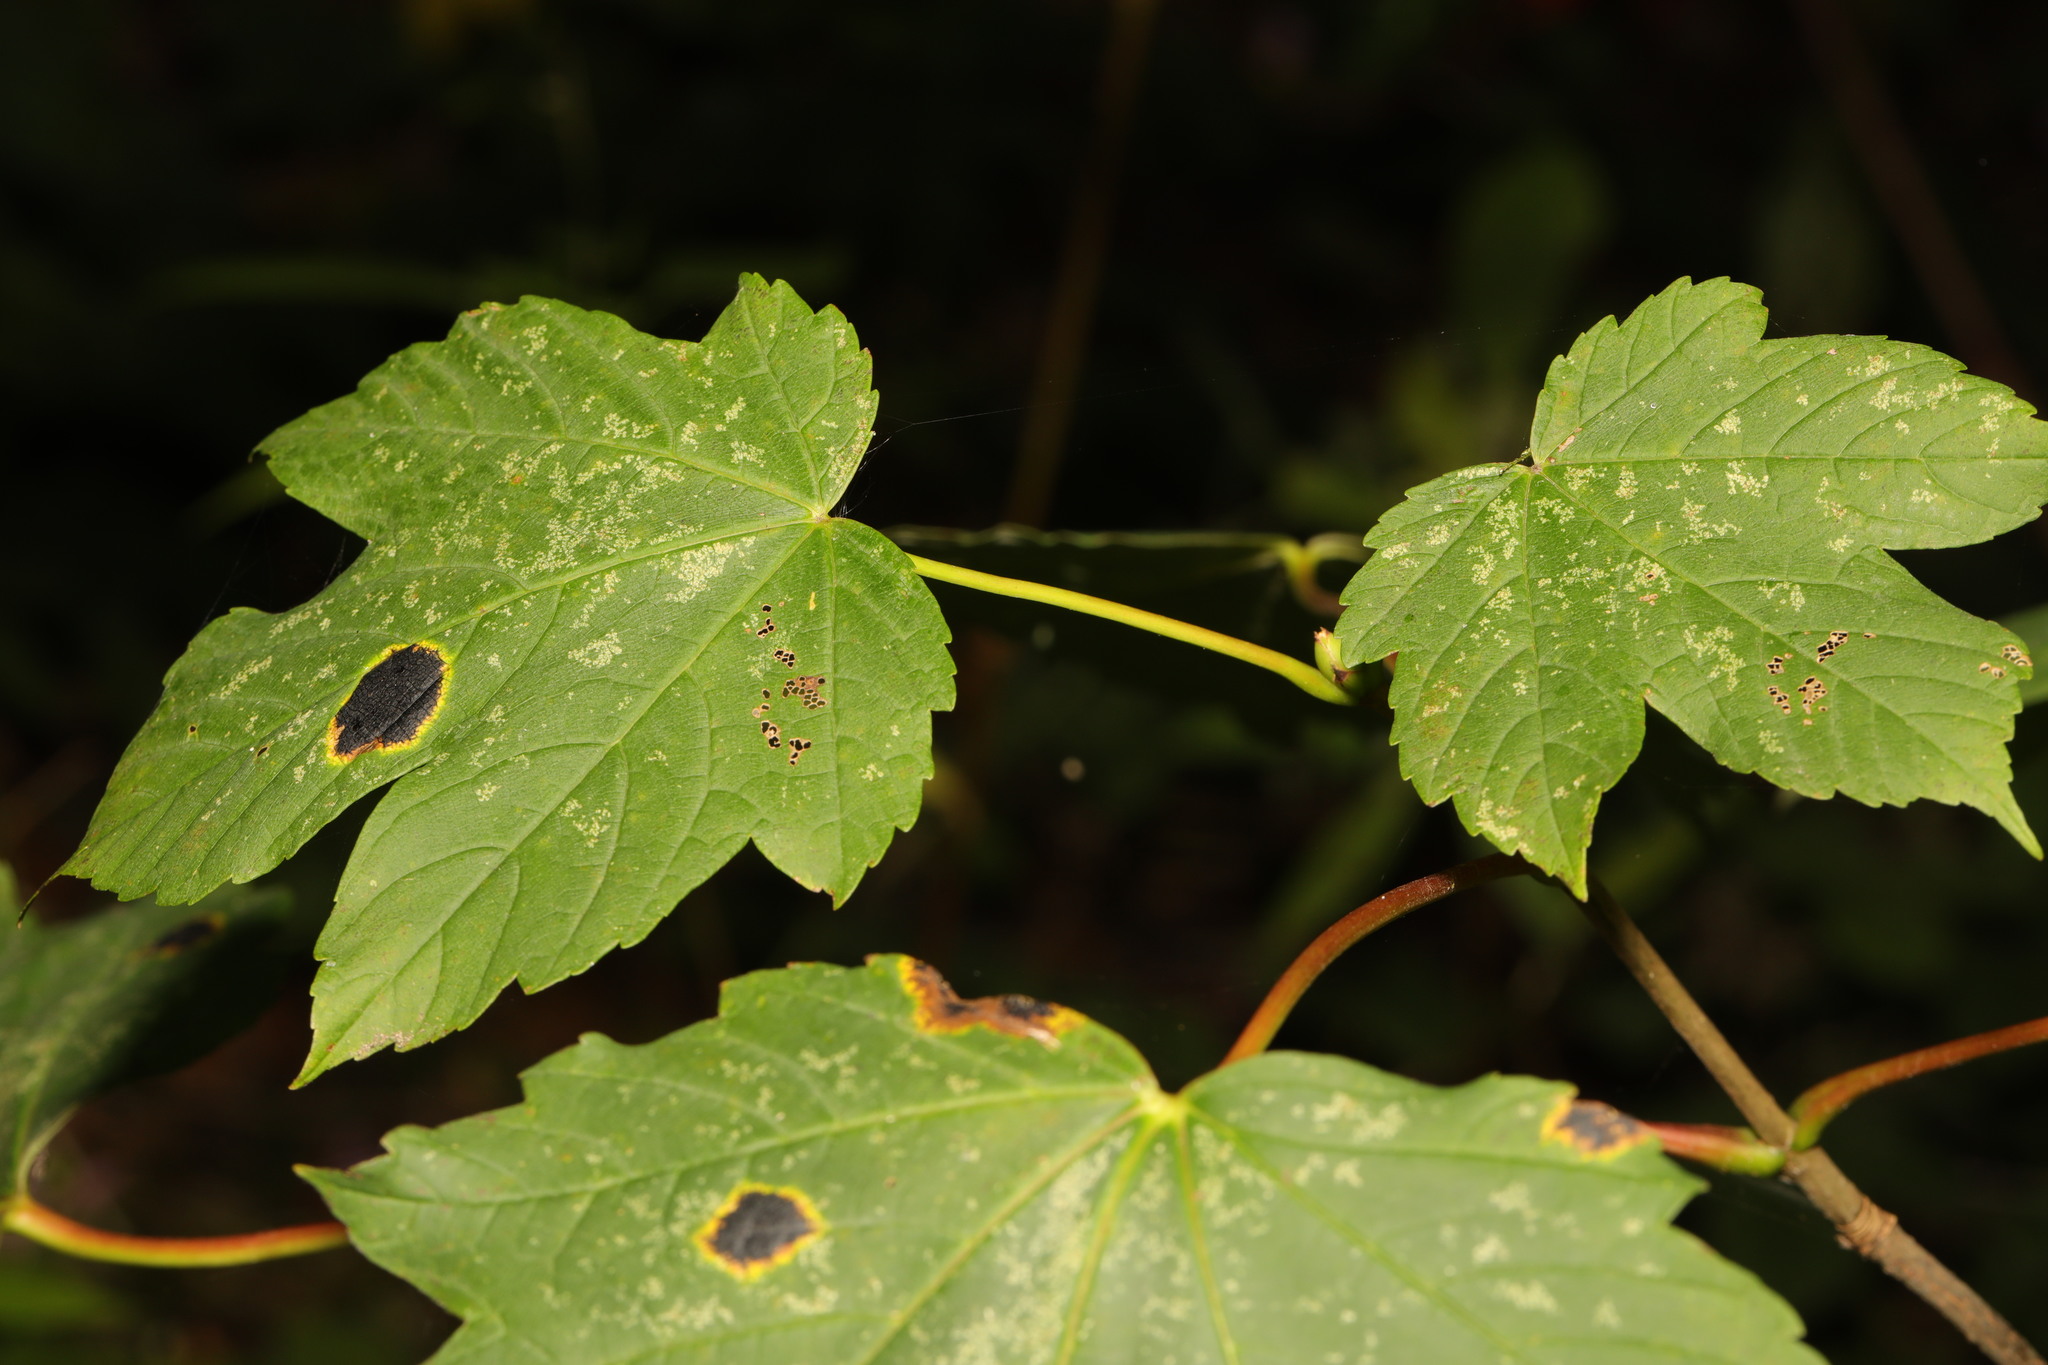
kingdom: Plantae
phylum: Tracheophyta
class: Magnoliopsida
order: Sapindales
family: Sapindaceae
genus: Acer
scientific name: Acer pseudoplatanus
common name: Sycamore
